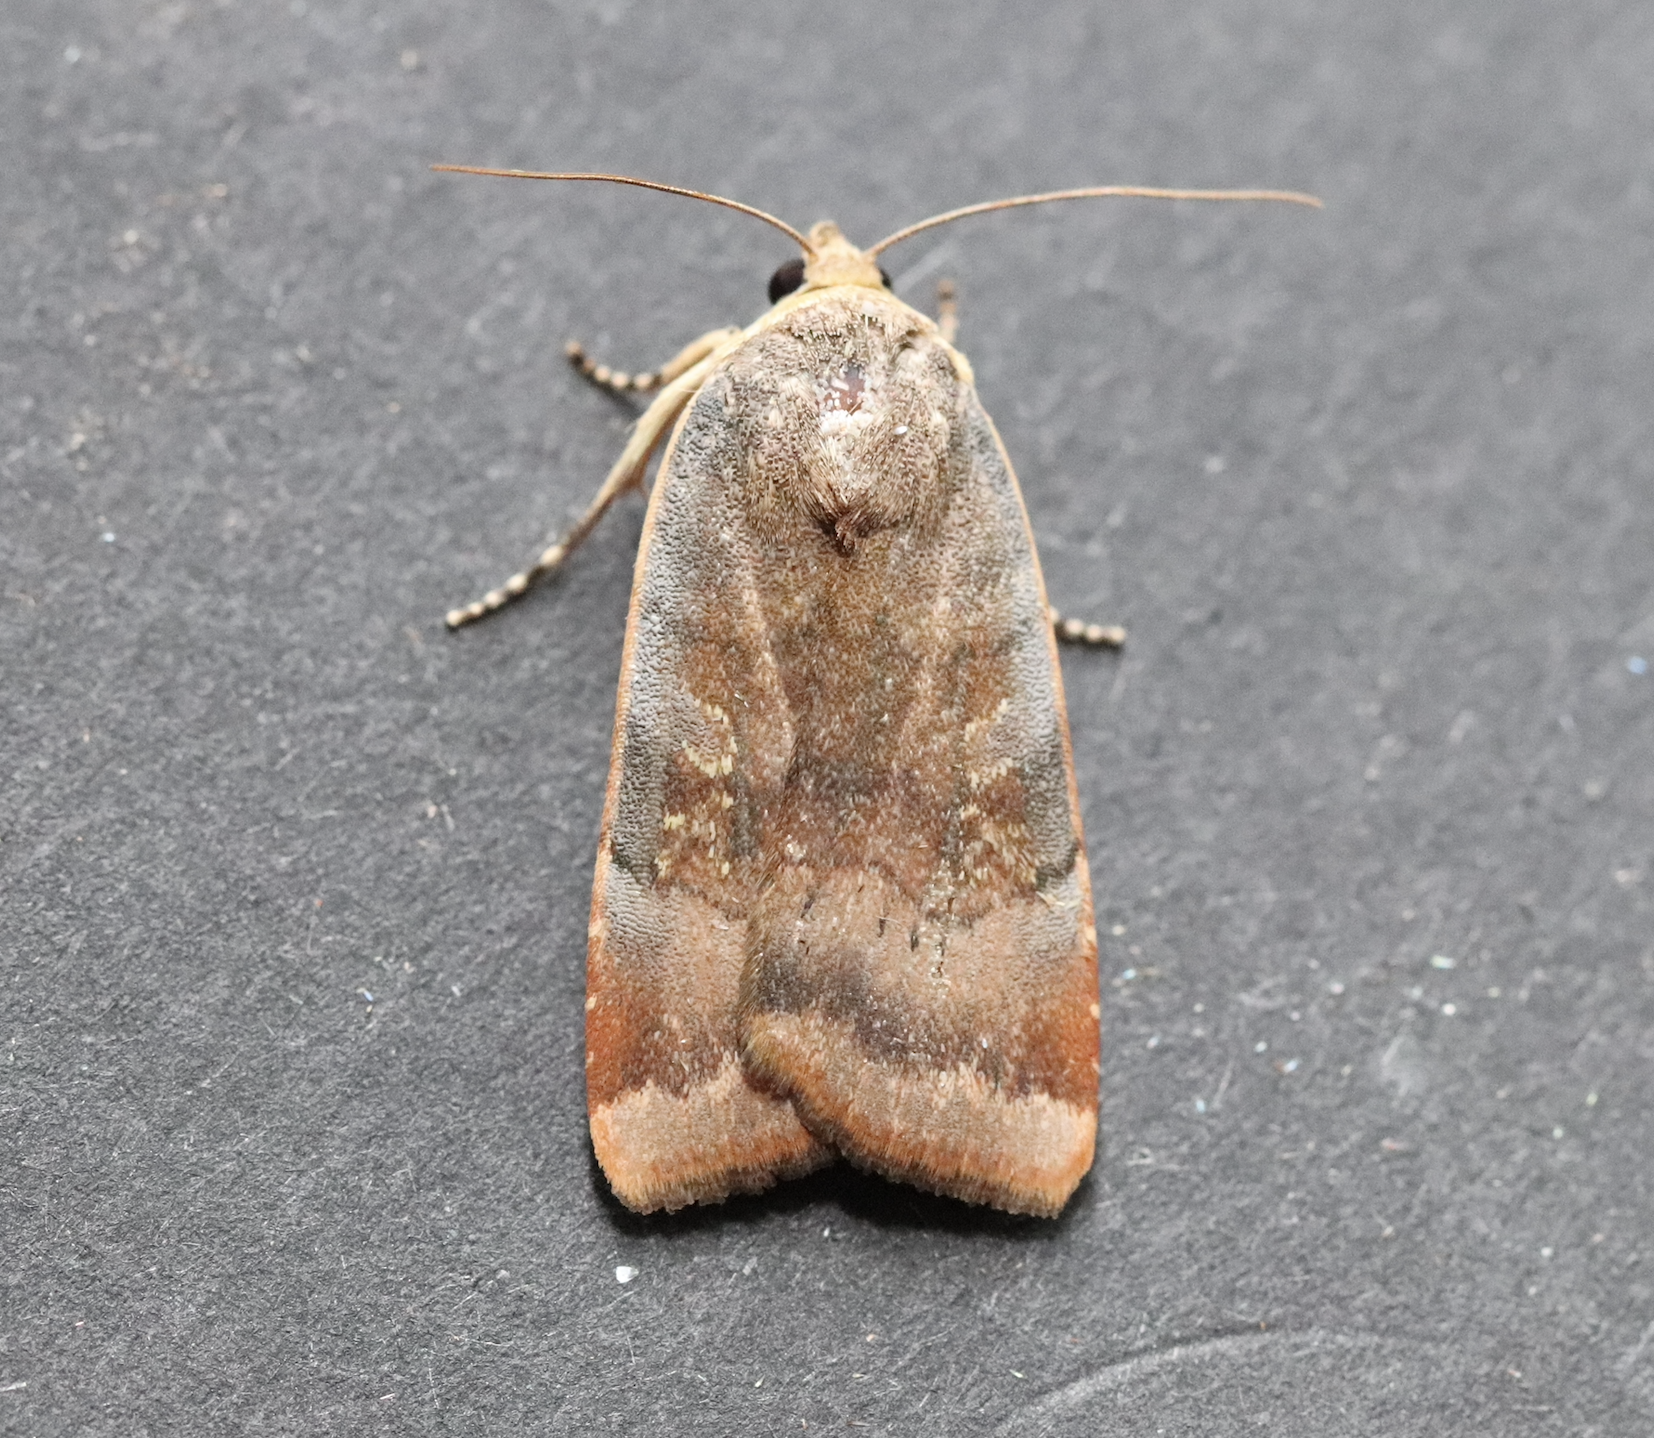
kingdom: Animalia
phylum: Arthropoda
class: Insecta
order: Lepidoptera
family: Noctuidae
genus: Noctua
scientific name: Noctua janthe
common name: Lesser broad-bordered yellow underwing
